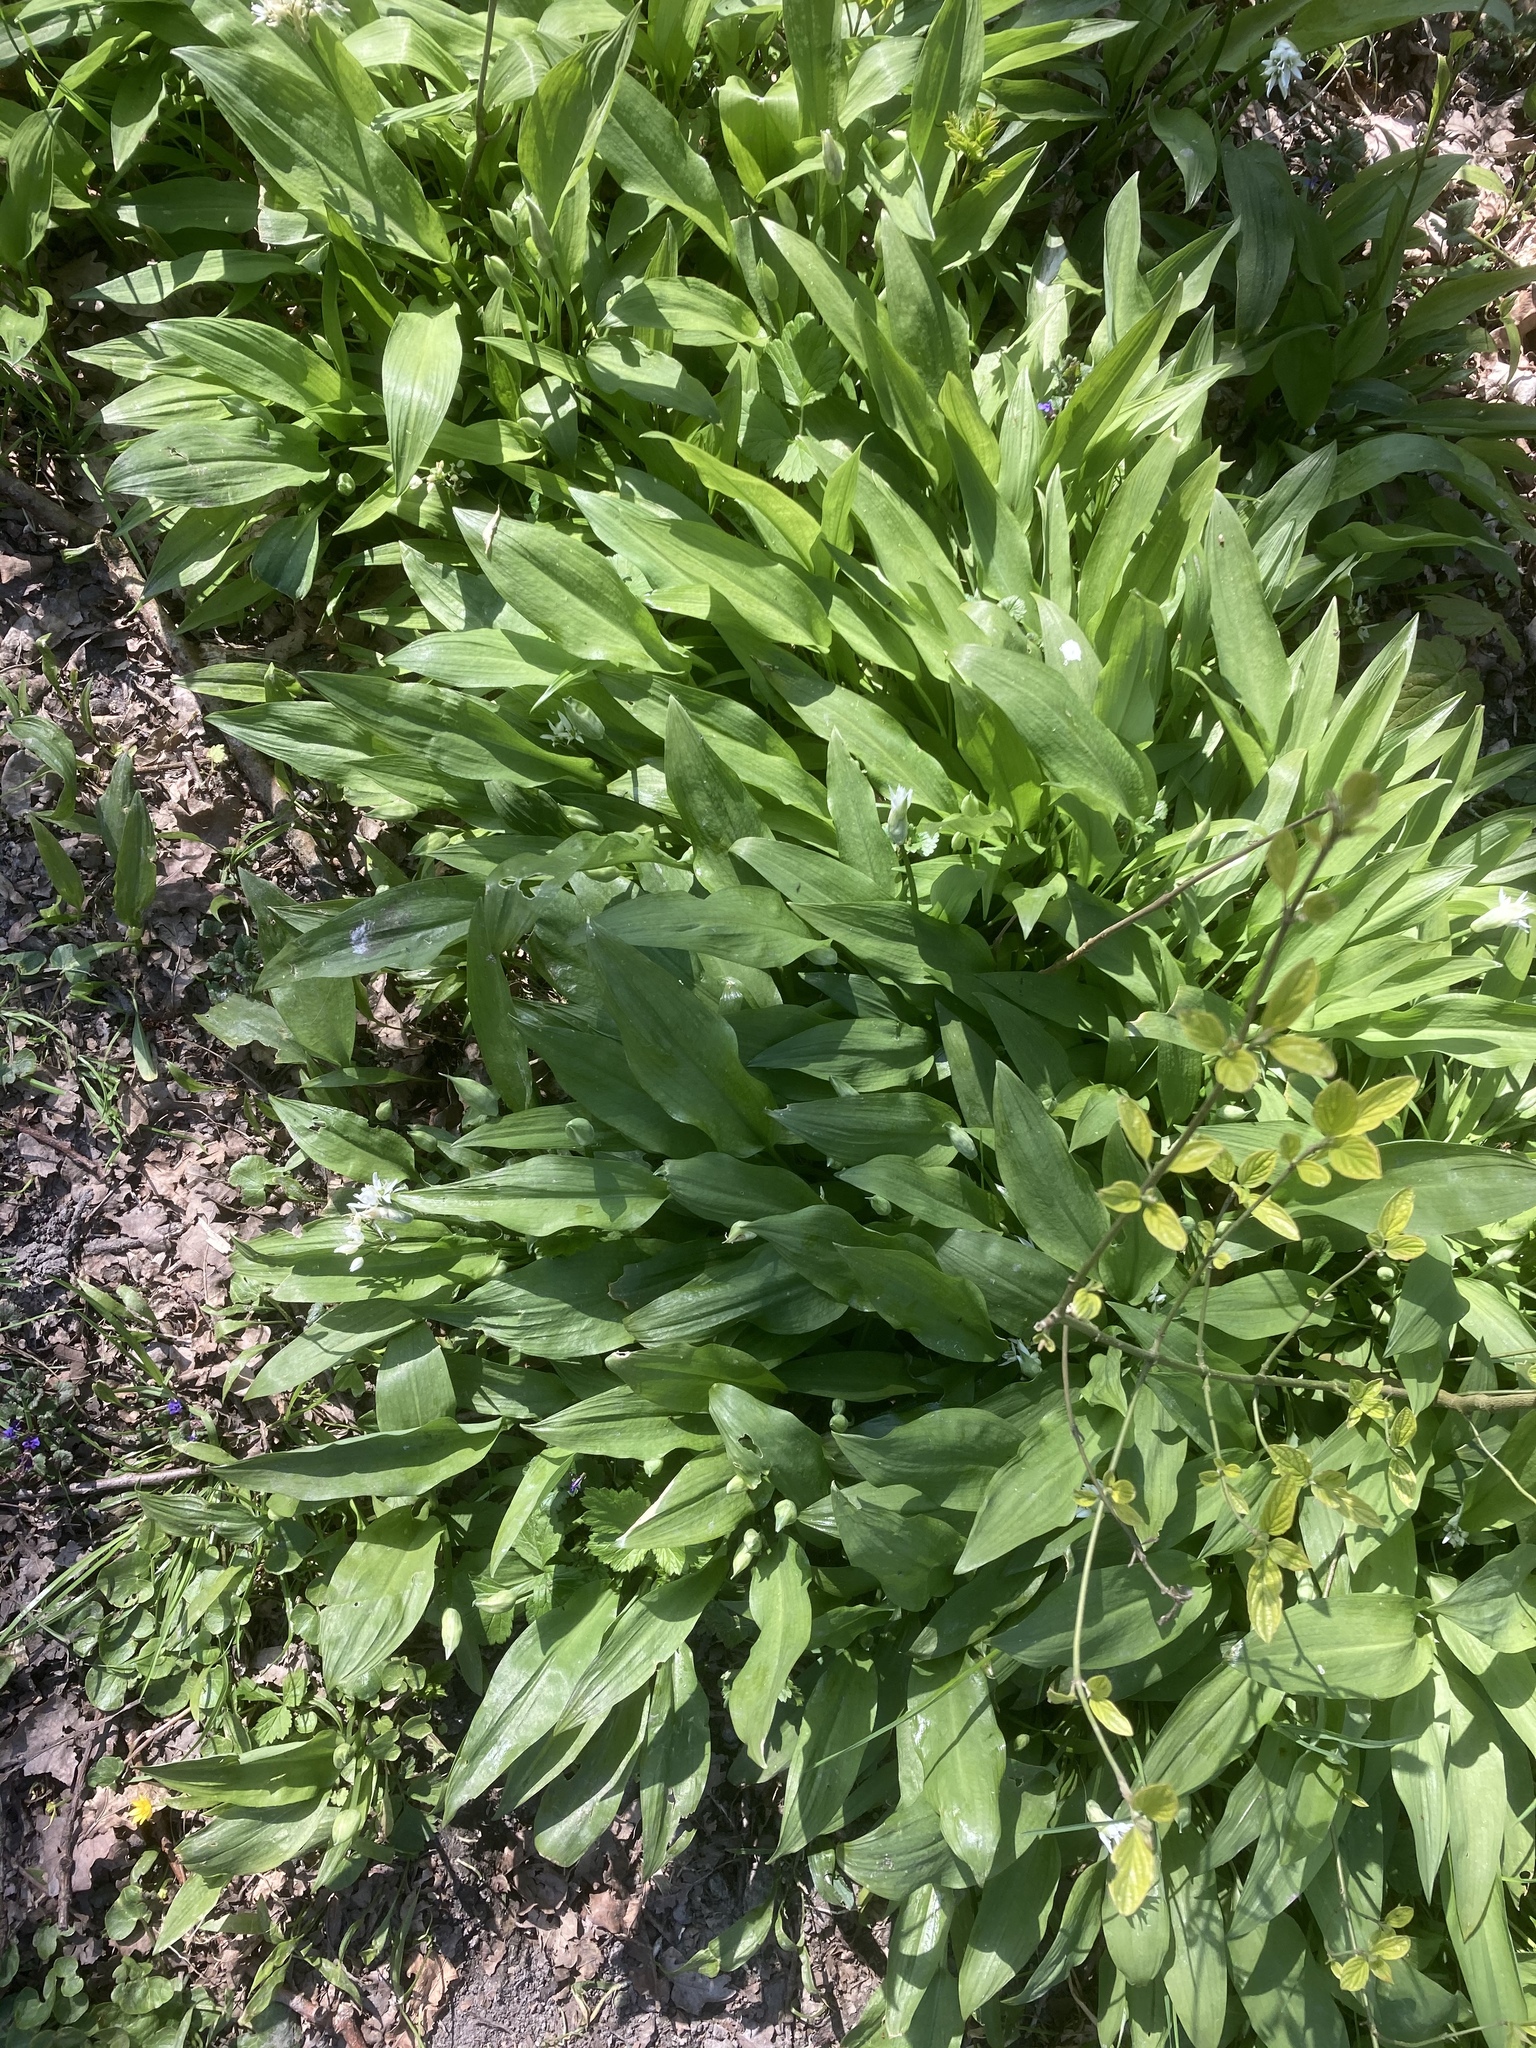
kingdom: Plantae
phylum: Tracheophyta
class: Liliopsida
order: Asparagales
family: Amaryllidaceae
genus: Allium
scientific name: Allium ursinum
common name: Ramsons
